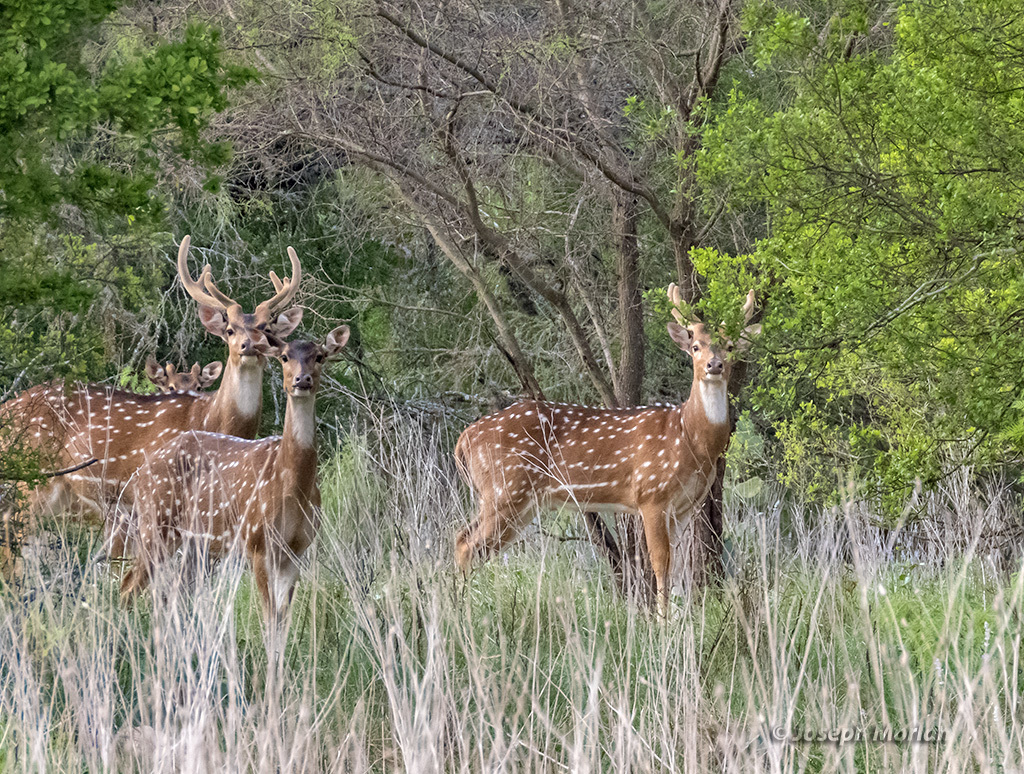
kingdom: Animalia
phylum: Chordata
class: Mammalia
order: Artiodactyla
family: Cervidae
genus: Axis
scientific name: Axis axis
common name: Chital
